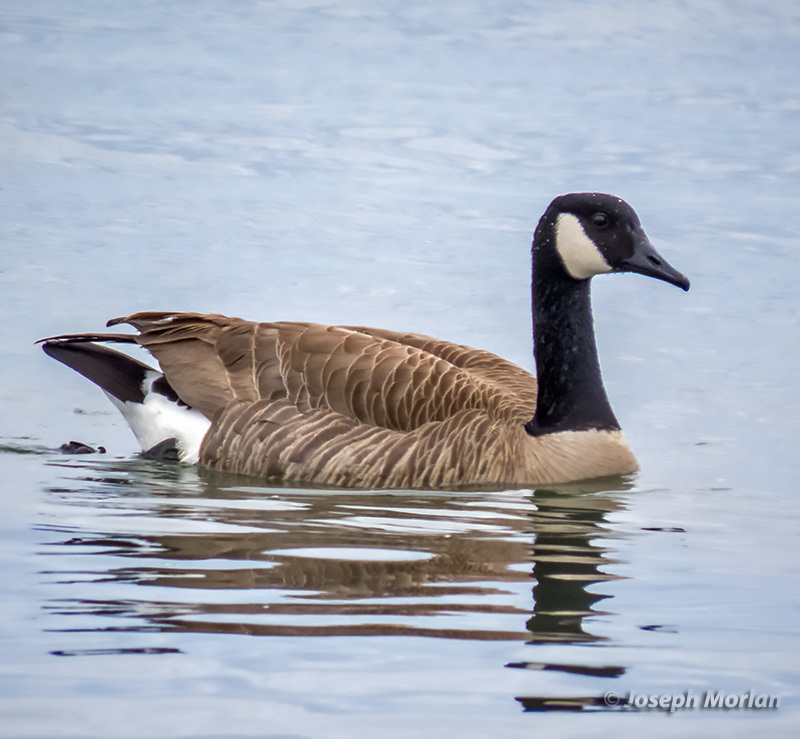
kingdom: Animalia
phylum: Chordata
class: Aves
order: Anseriformes
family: Anatidae
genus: Branta
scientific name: Branta canadensis
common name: Canada goose
